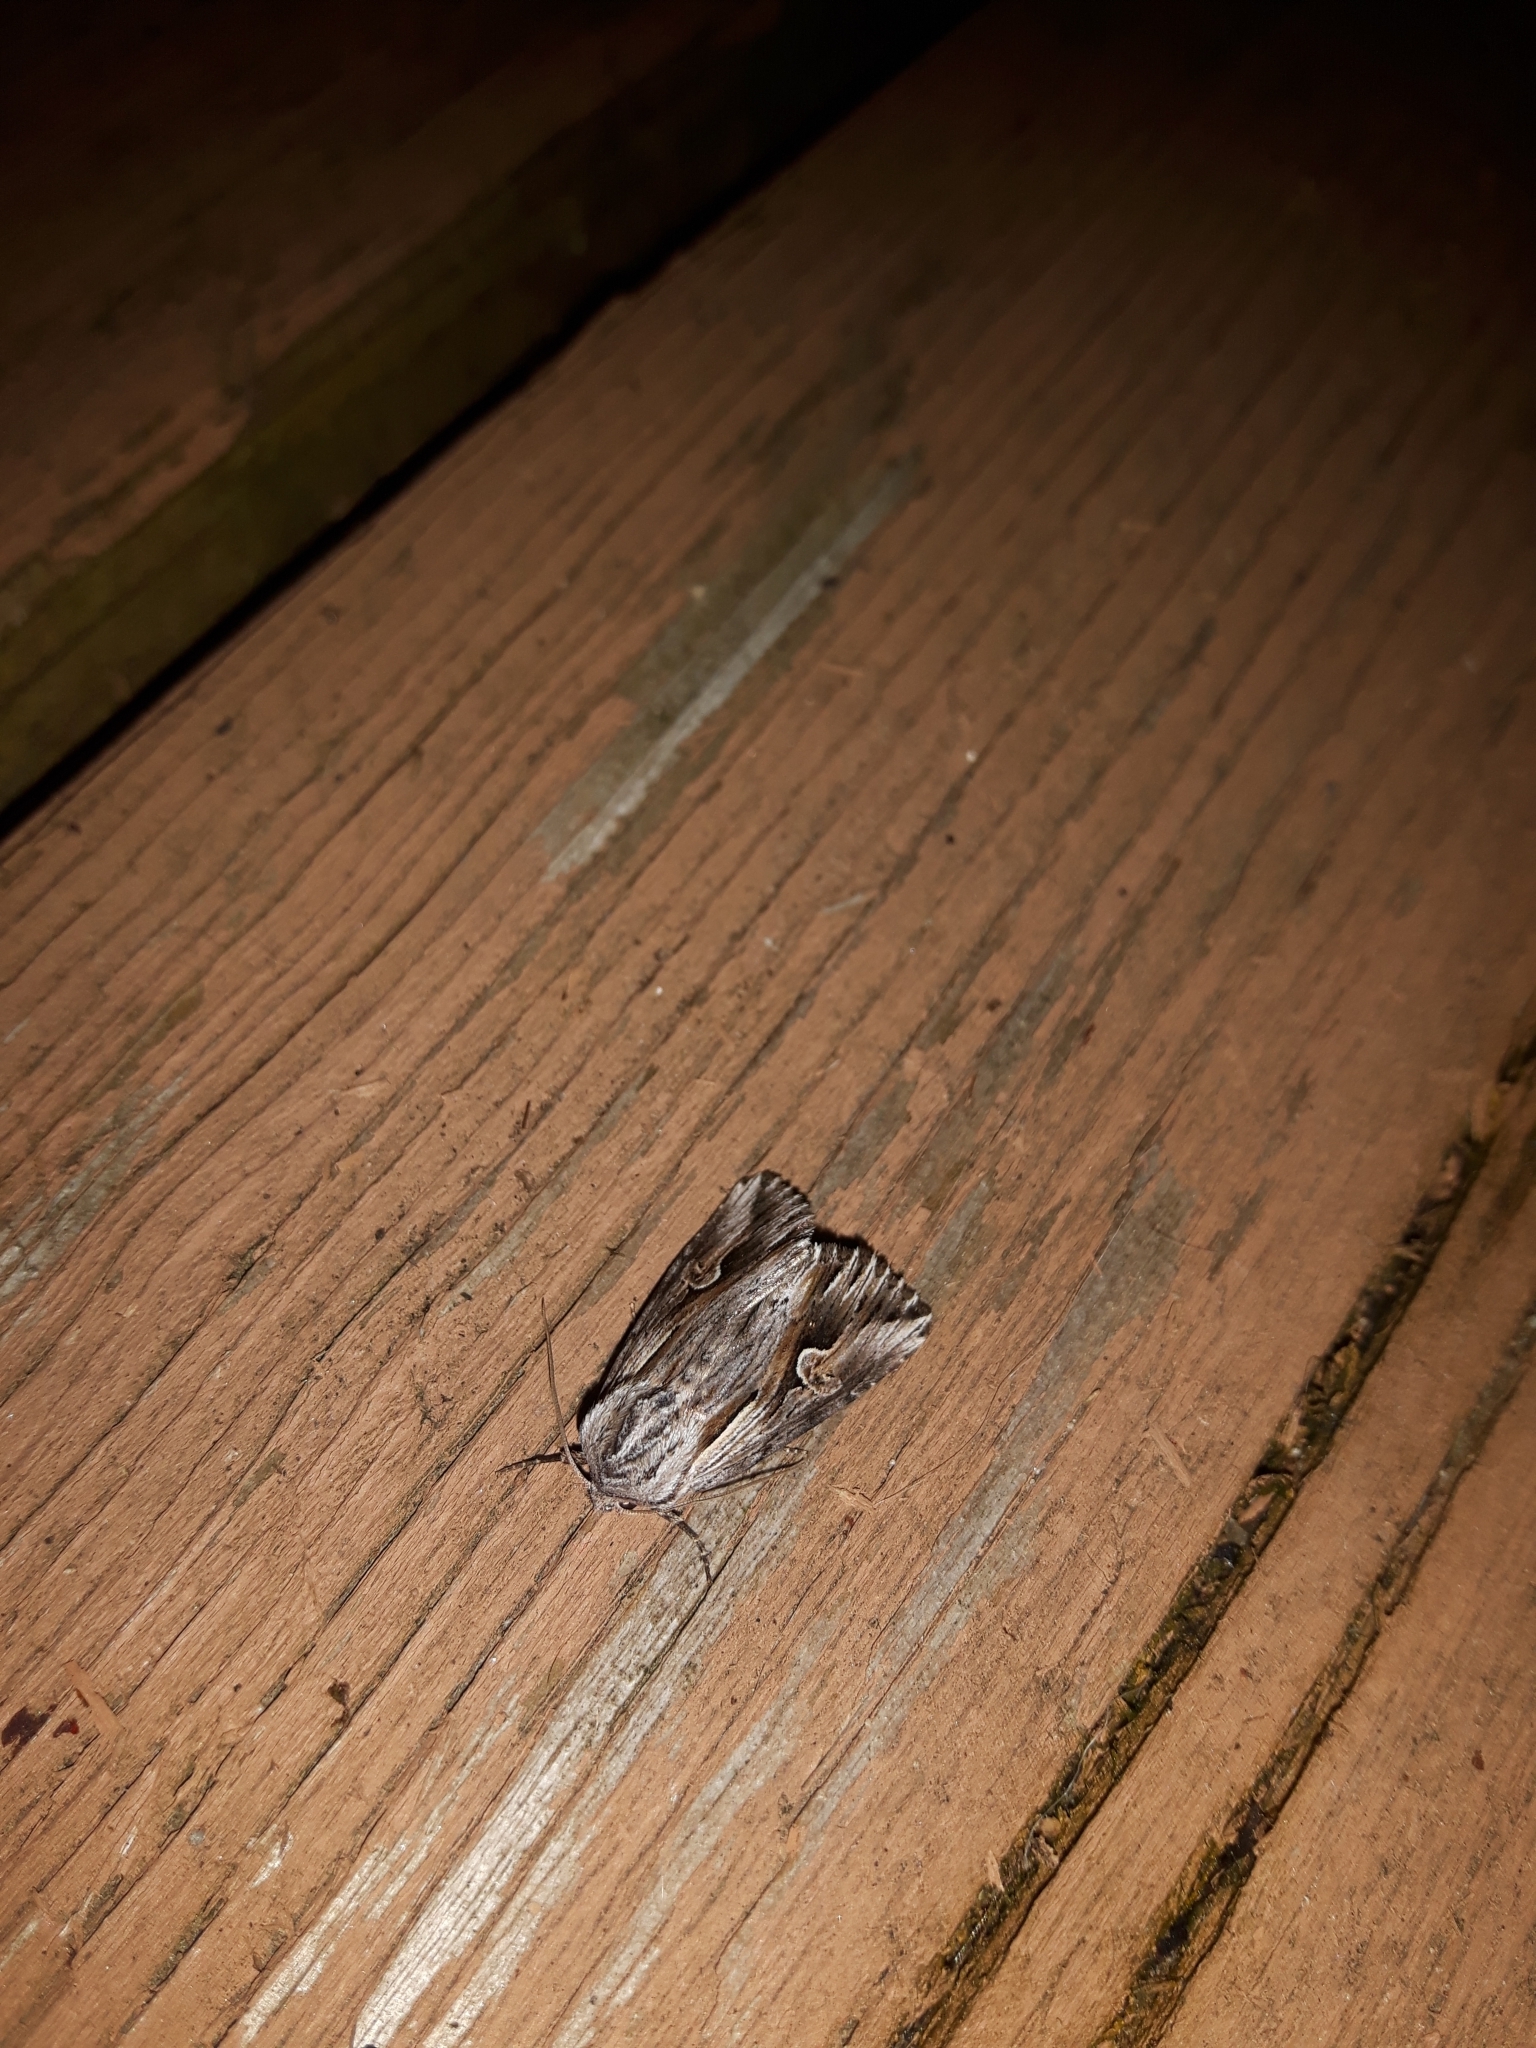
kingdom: Animalia
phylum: Arthropoda
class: Insecta
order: Lepidoptera
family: Noctuidae
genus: Nedra
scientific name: Nedra ramosula
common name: Gray half-spot
